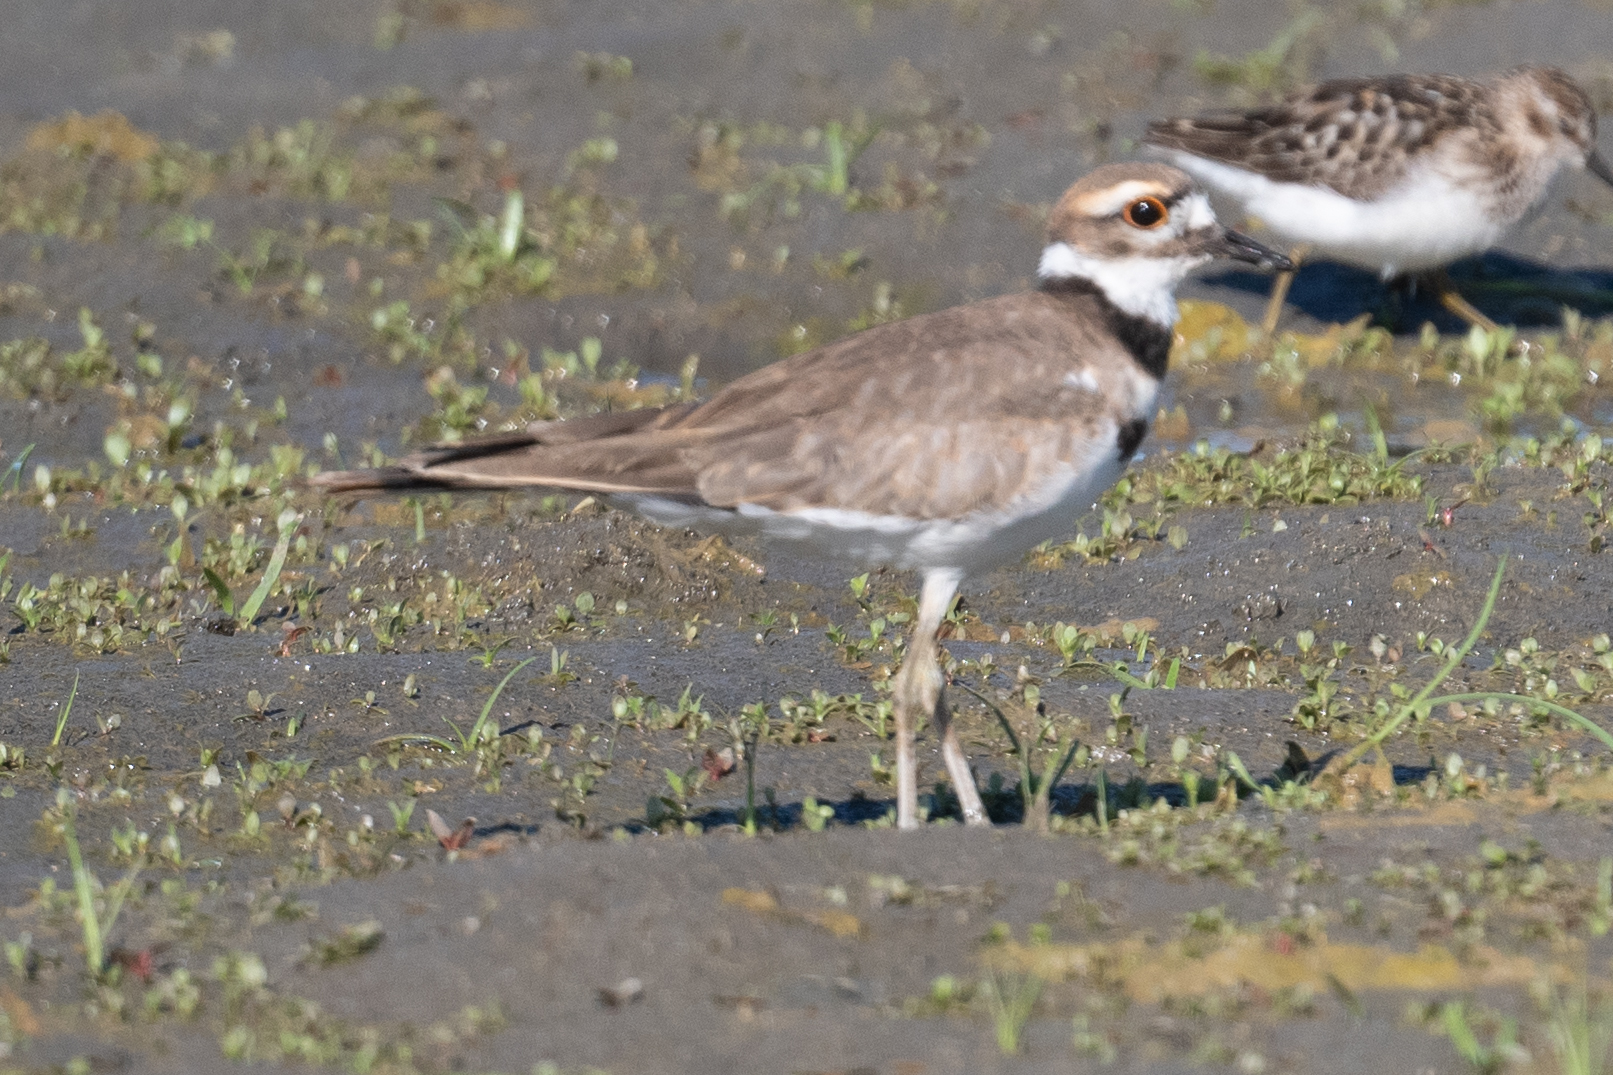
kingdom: Animalia
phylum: Chordata
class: Aves
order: Charadriiformes
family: Charadriidae
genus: Charadrius
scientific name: Charadrius vociferus
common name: Killdeer
